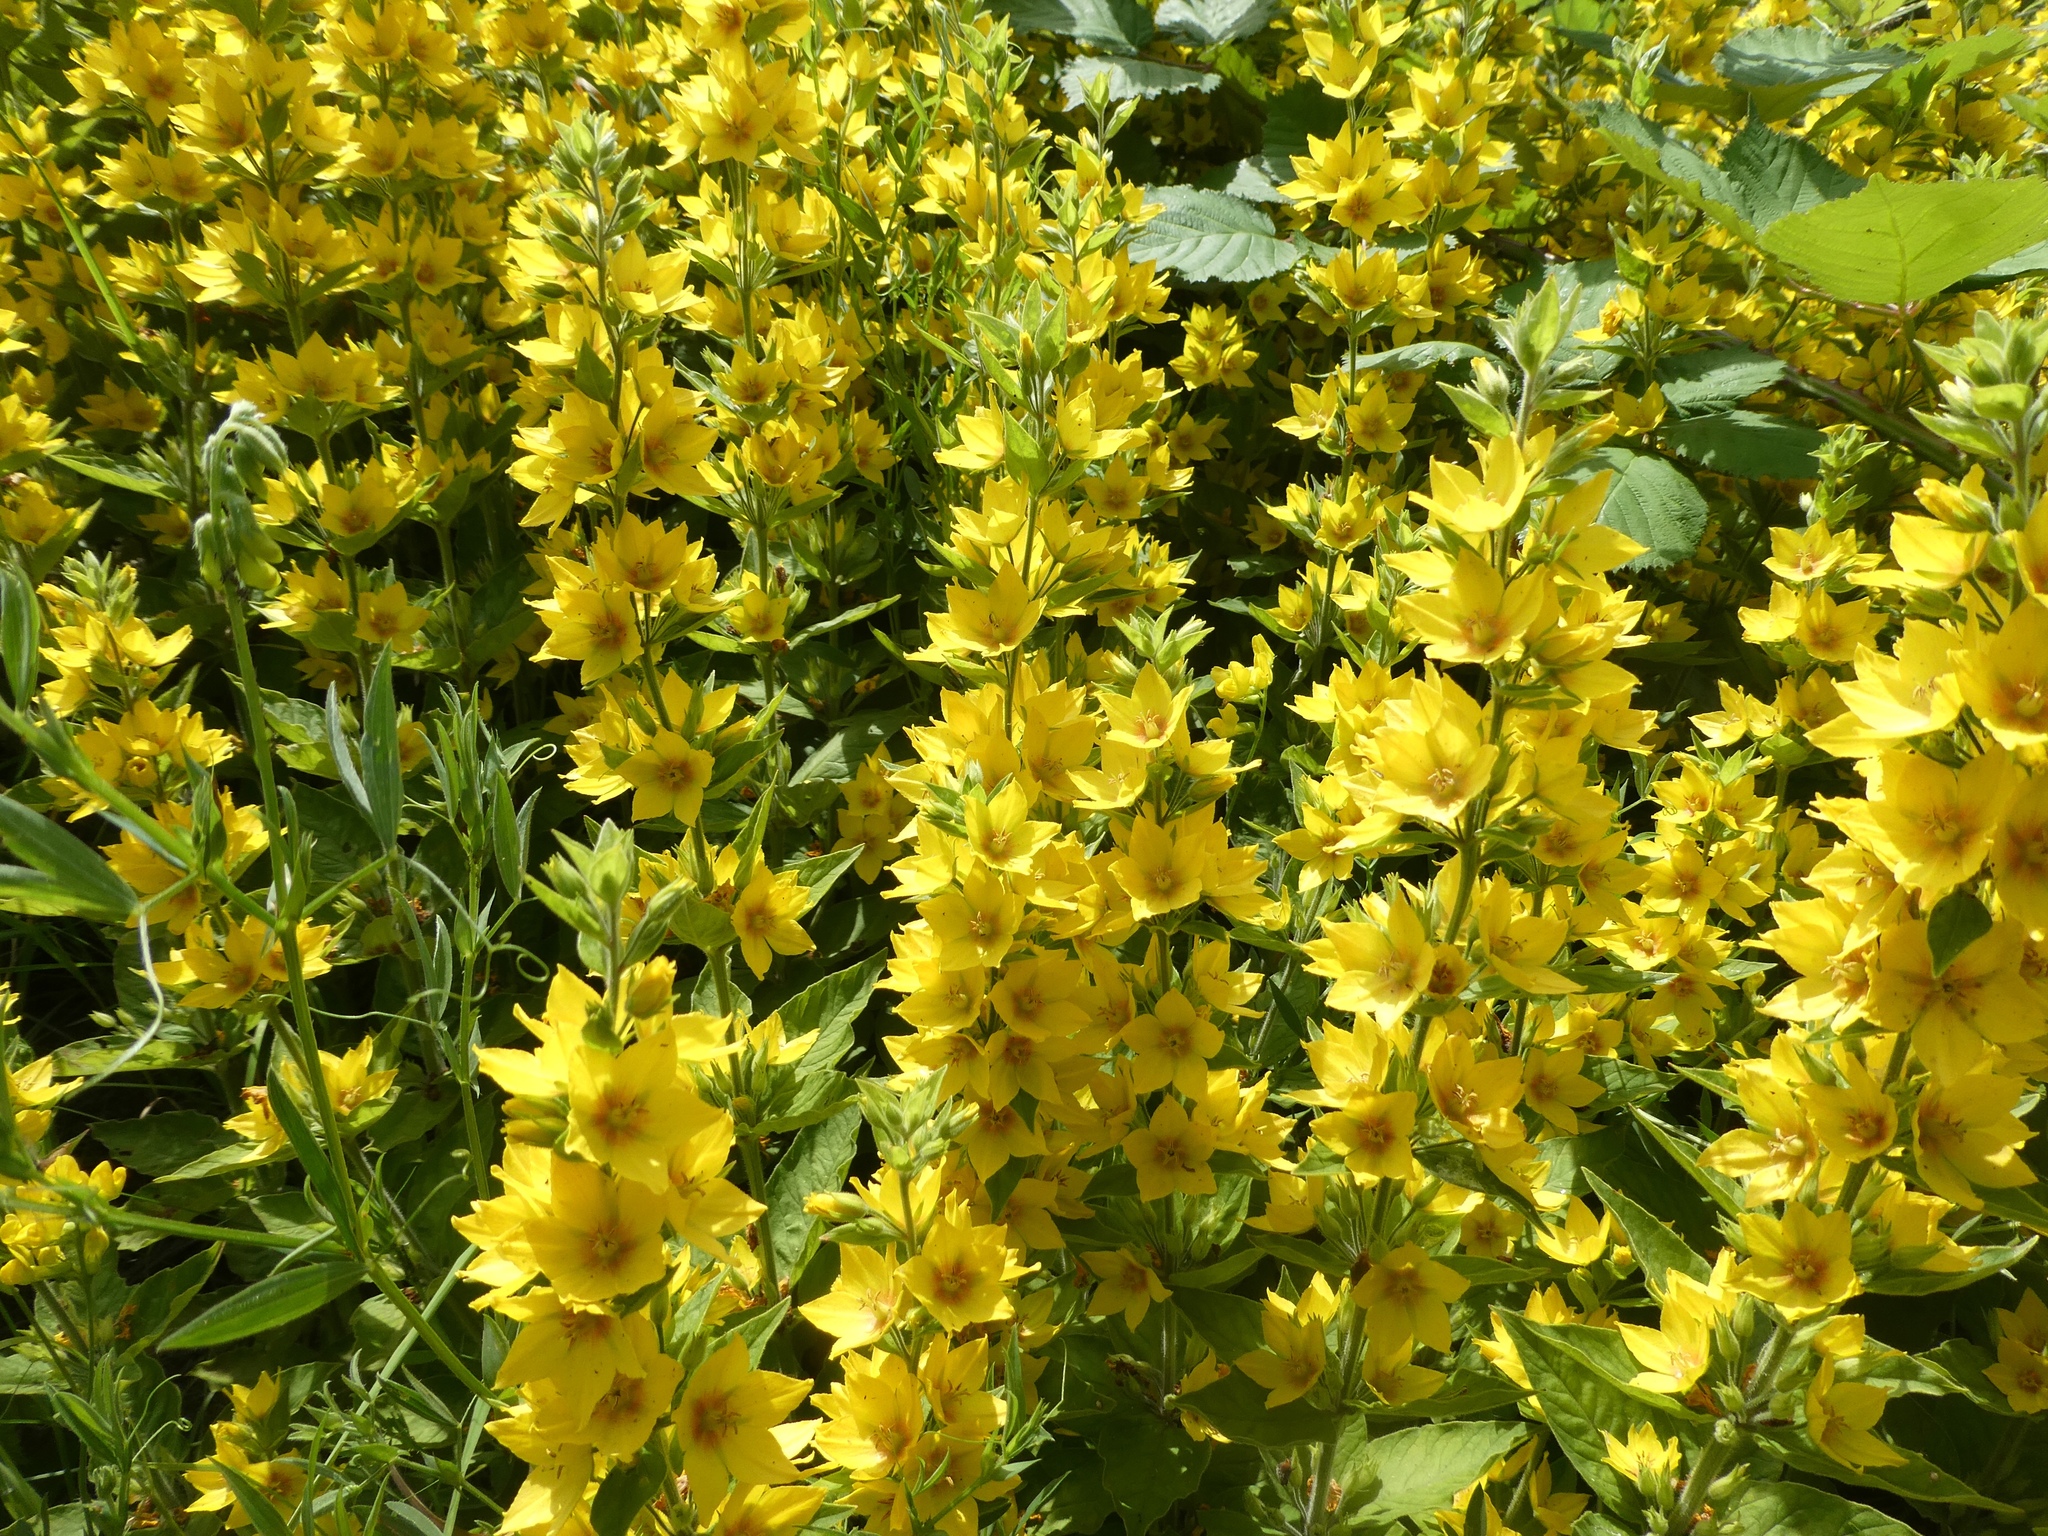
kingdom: Plantae
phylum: Tracheophyta
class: Magnoliopsida
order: Ericales
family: Primulaceae
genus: Lysimachia
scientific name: Lysimachia punctata
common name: Dotted loosestrife
